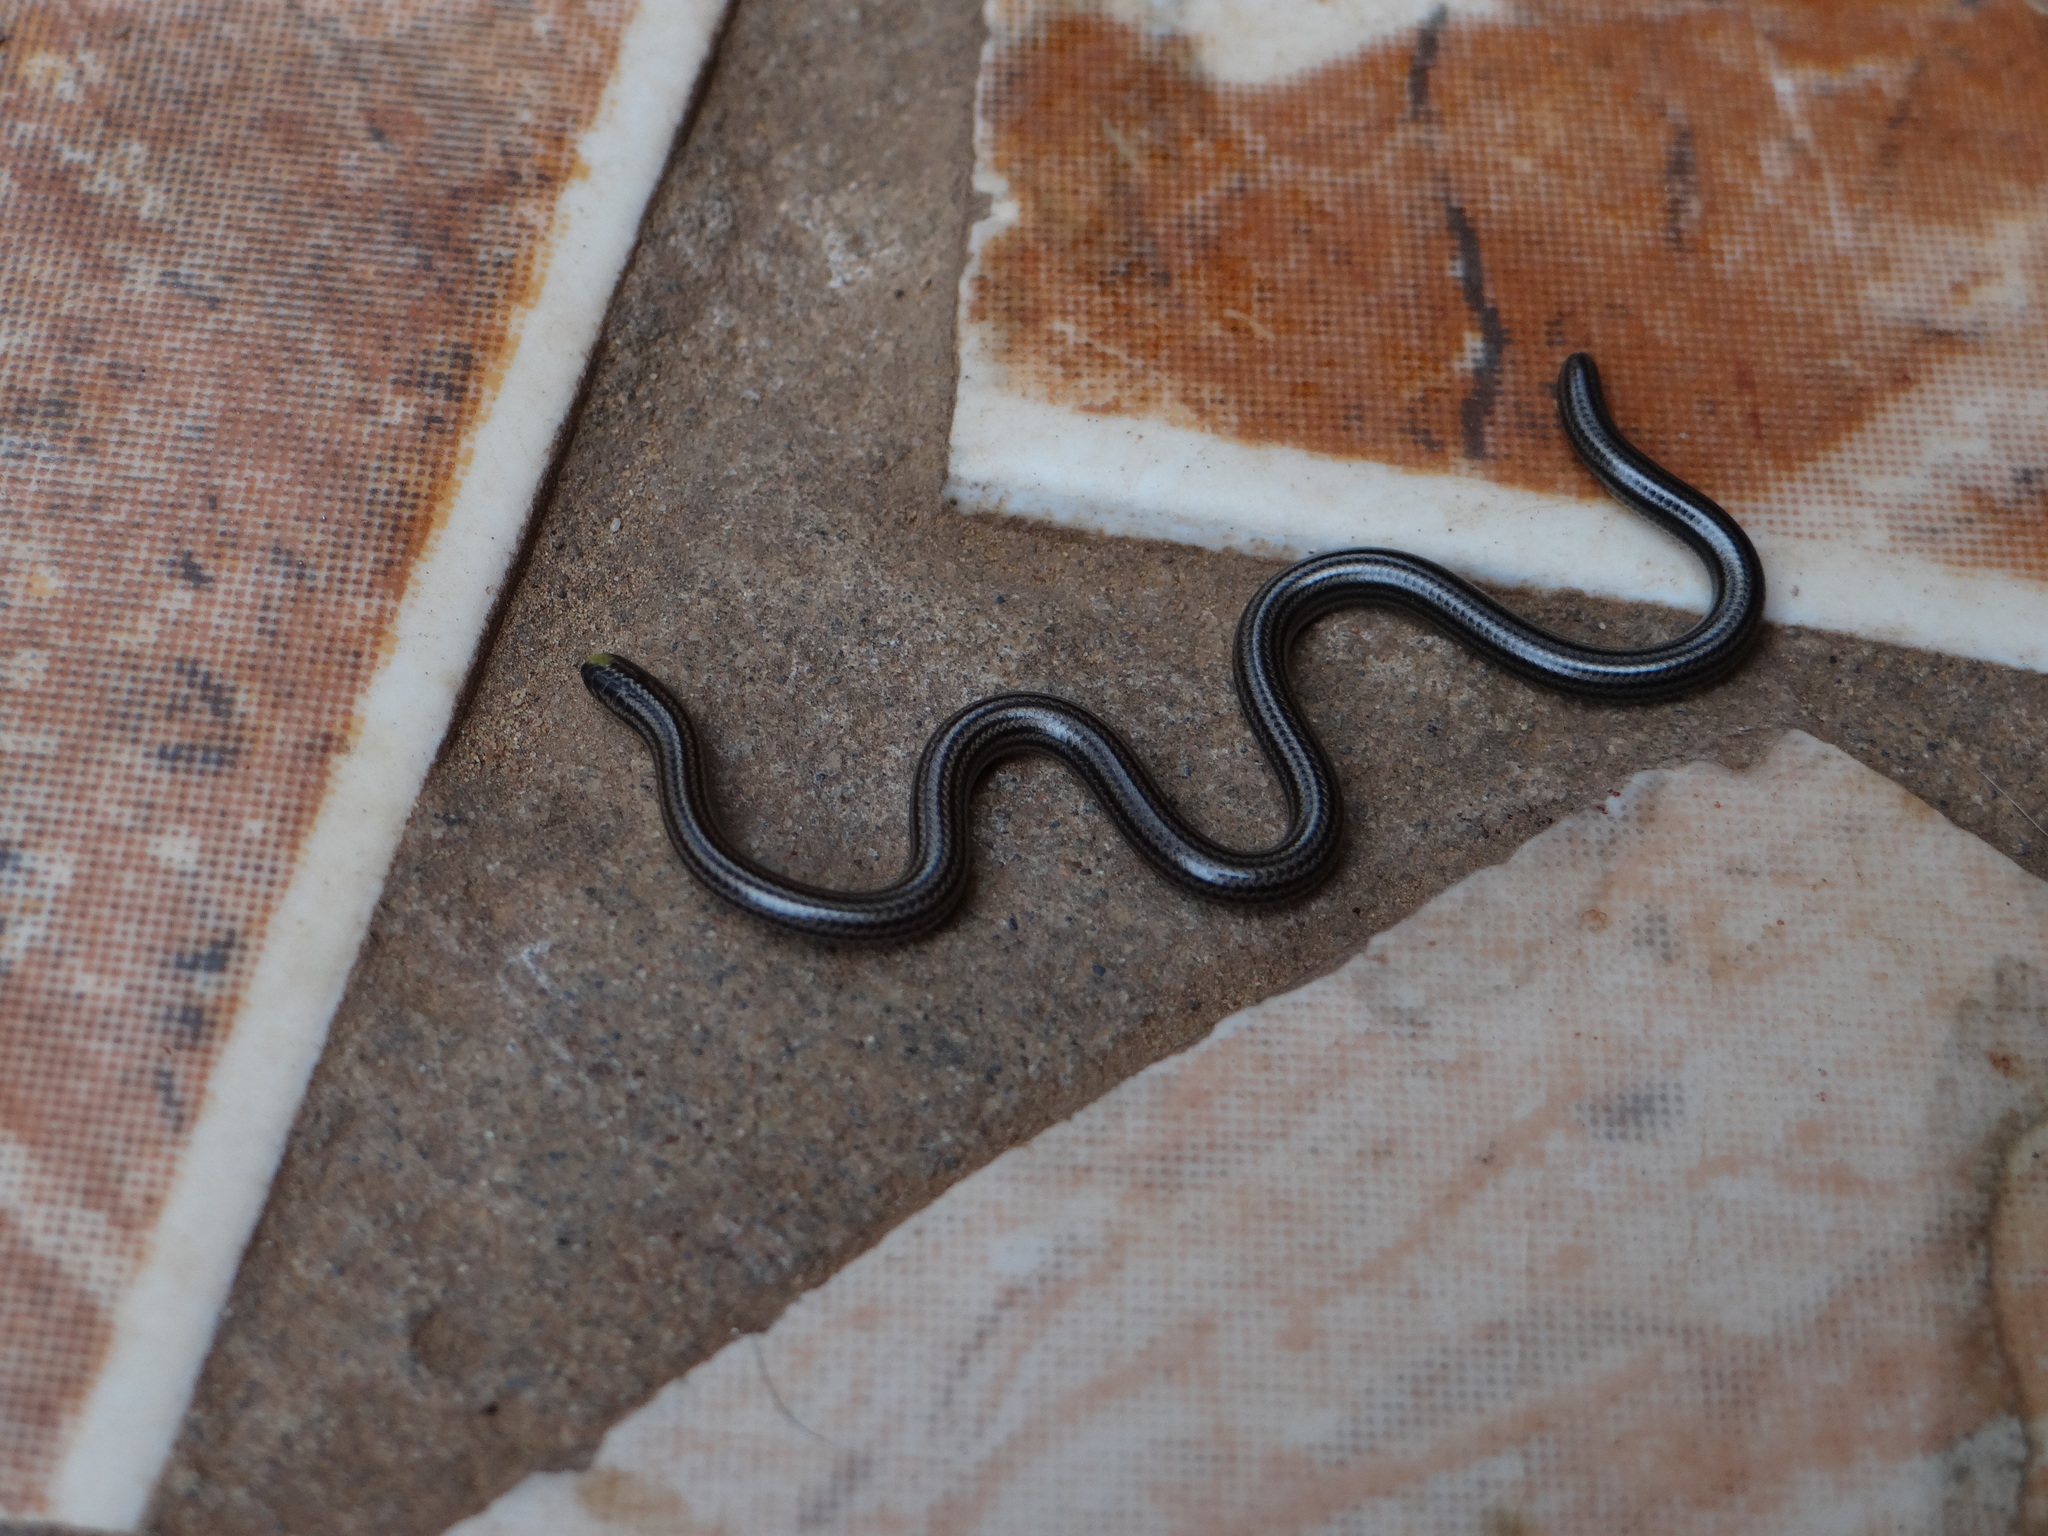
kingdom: Animalia
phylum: Chordata
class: Squamata
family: Leptotyphlopidae
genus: Epictia
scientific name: Epictia tenella
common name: Guyana blind snake
